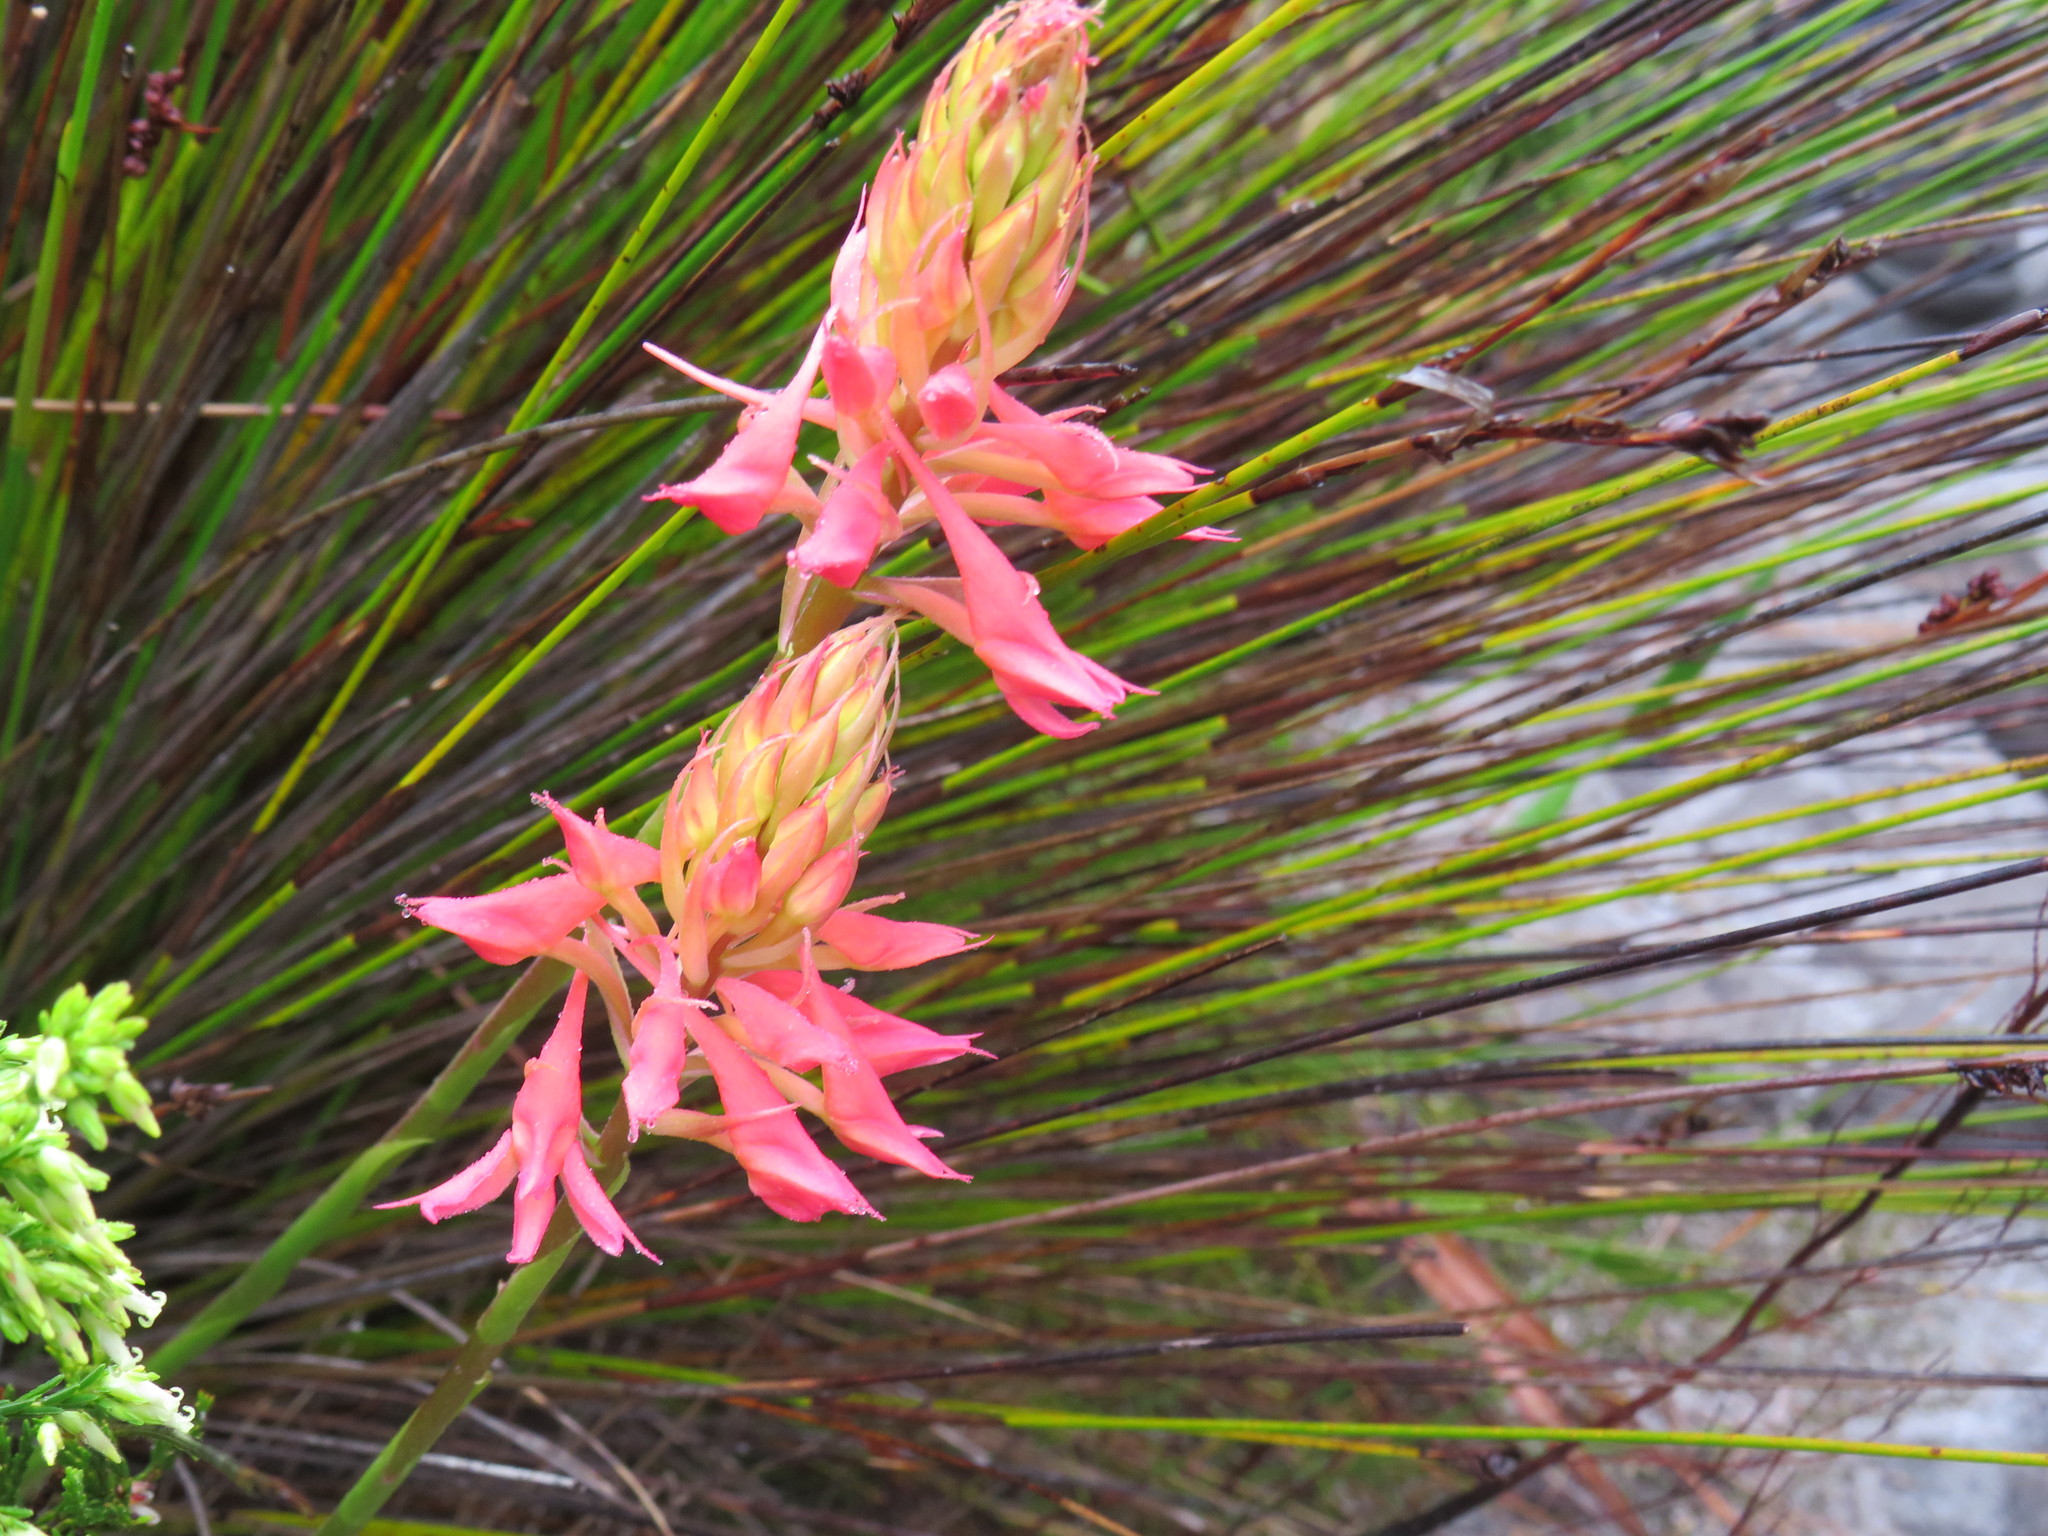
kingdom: Plantae
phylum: Tracheophyta
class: Liliopsida
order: Asparagales
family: Orchidaceae
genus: Disa
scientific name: Disa ferruginea
